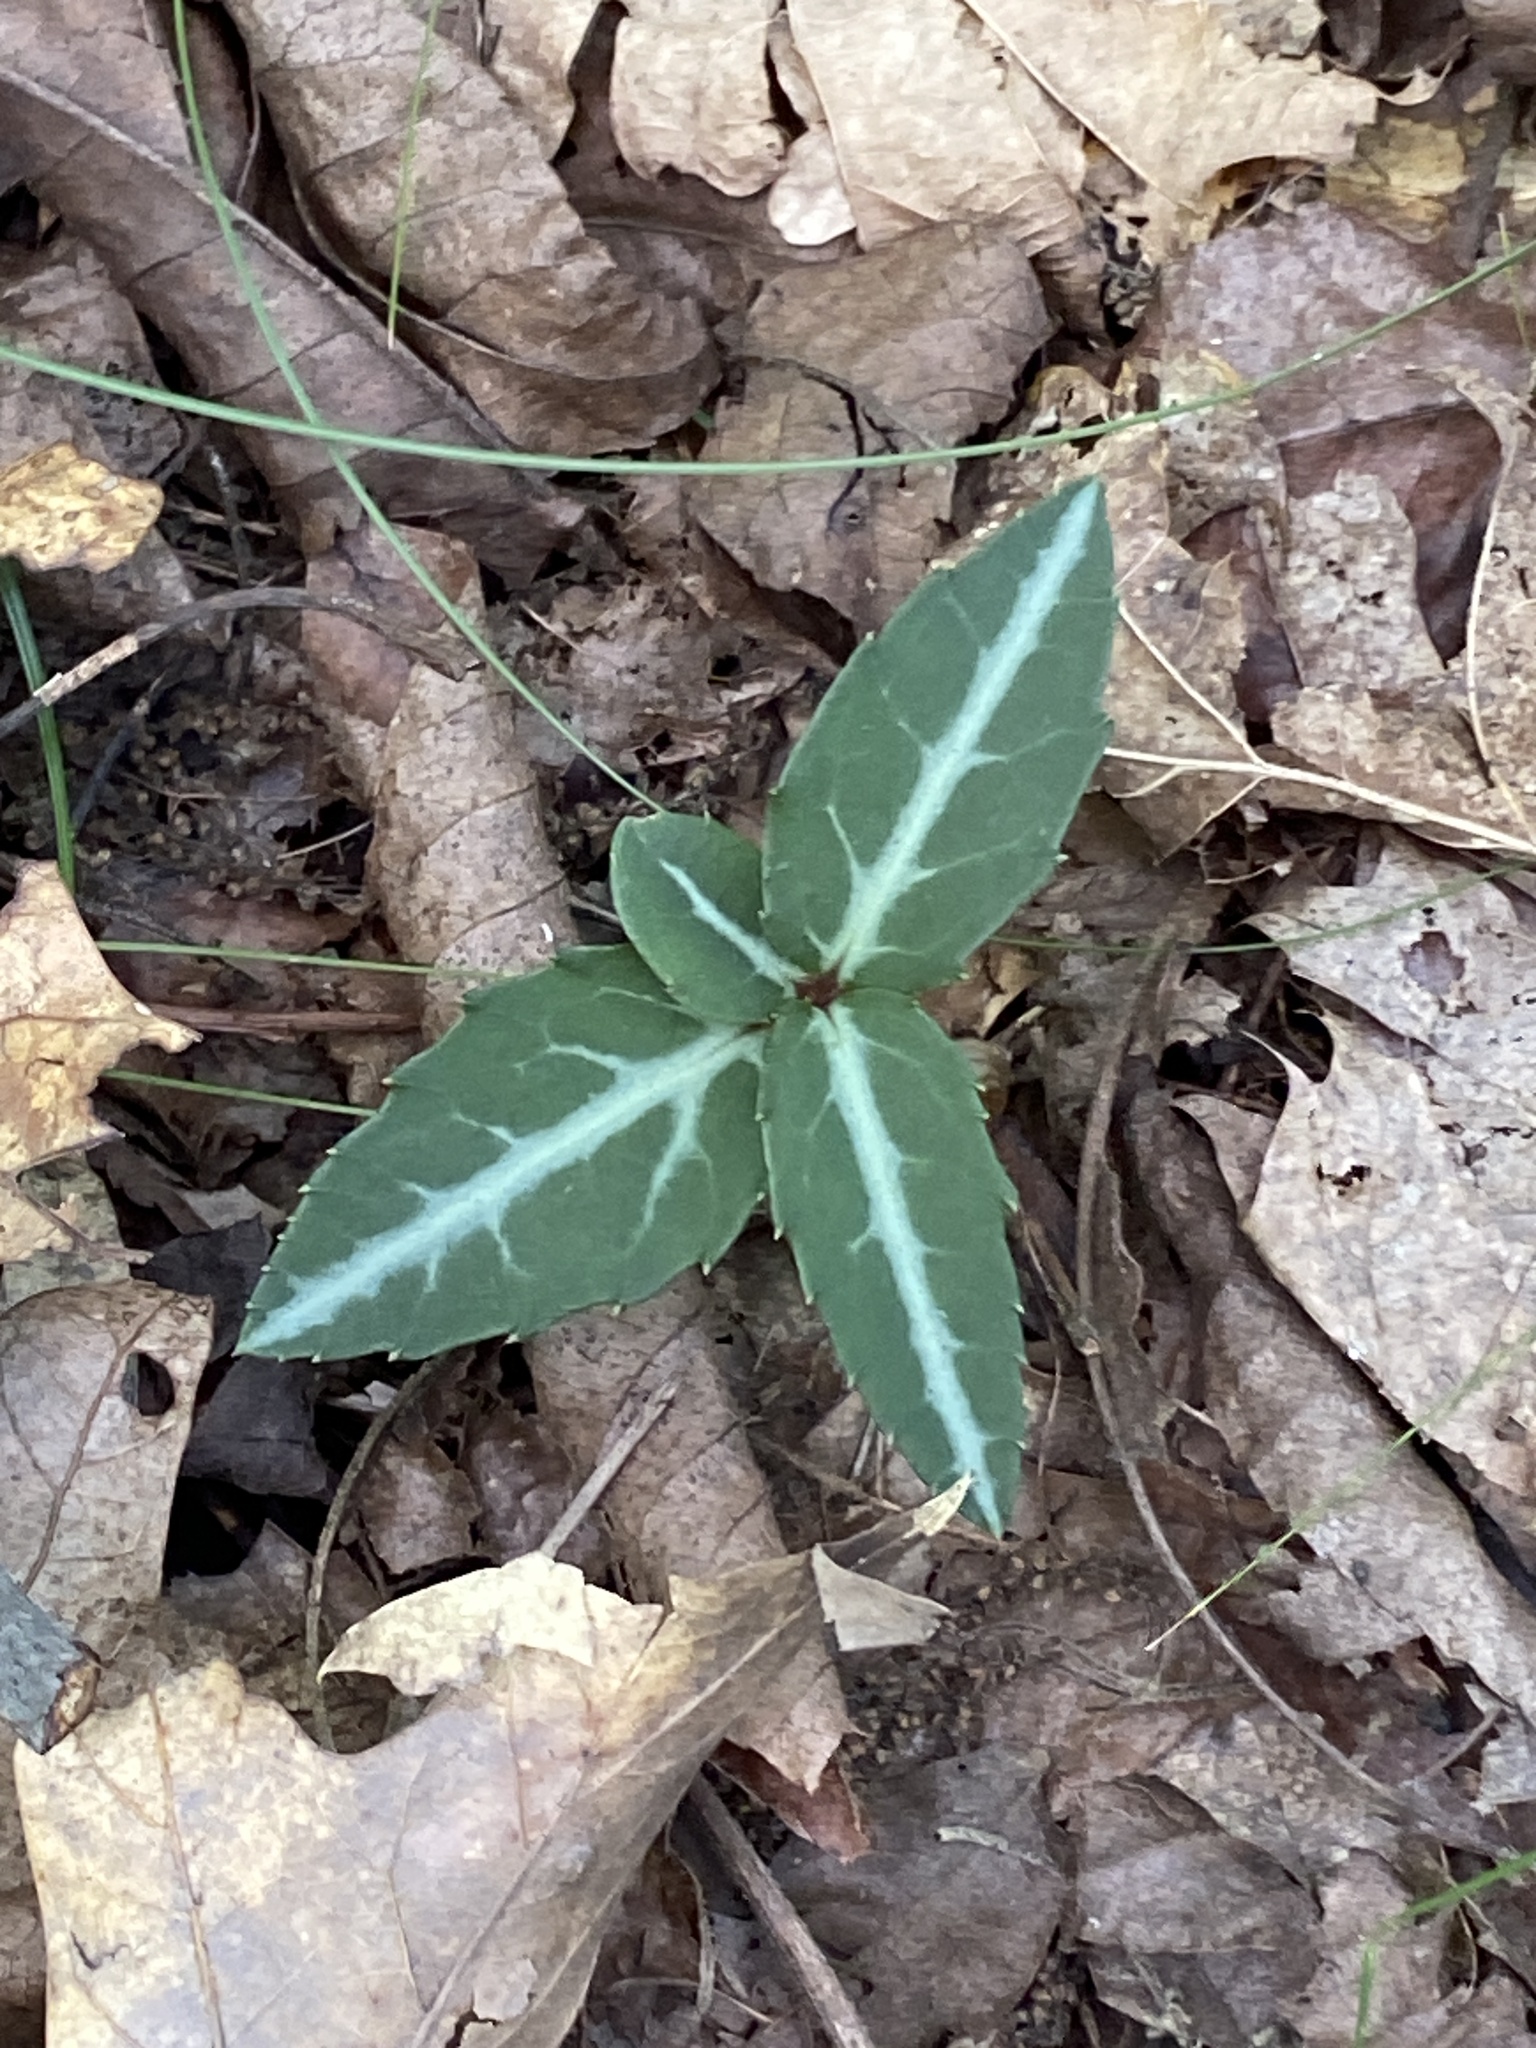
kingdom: Plantae
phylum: Tracheophyta
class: Magnoliopsida
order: Ericales
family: Ericaceae
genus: Chimaphila
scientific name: Chimaphila maculata
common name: Spotted pipsissewa
